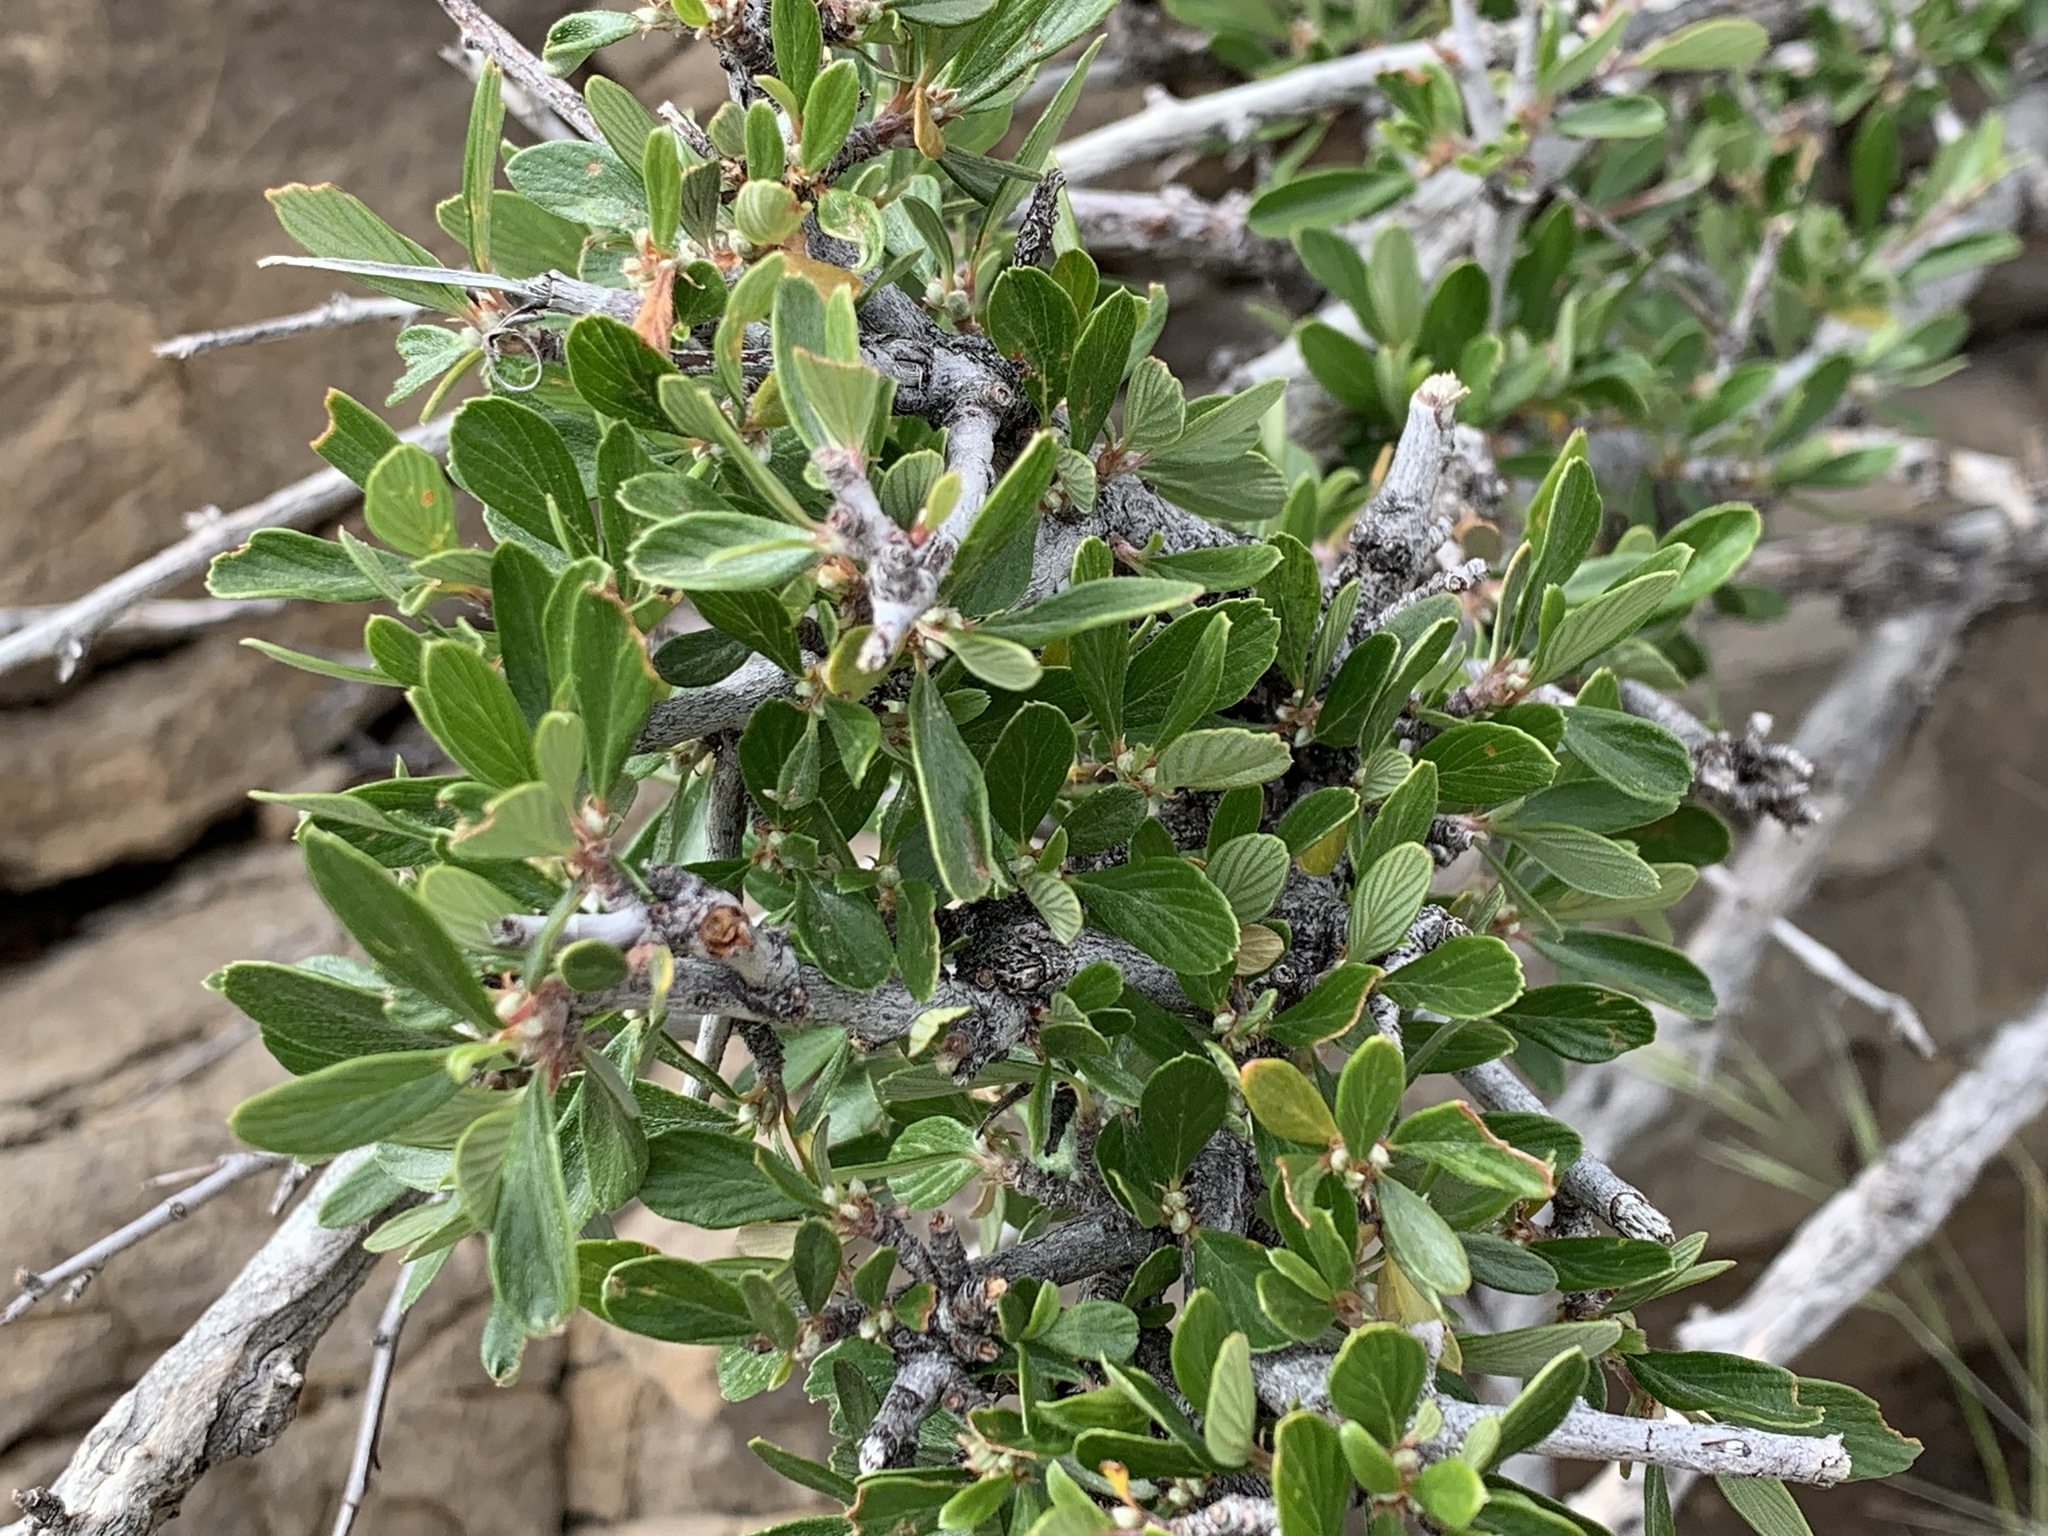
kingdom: Plantae
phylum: Tracheophyta
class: Magnoliopsida
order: Rosales
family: Rosaceae
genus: Cercocarpus
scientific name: Cercocarpus breviflorus
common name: Wright's mountain-mahogany
